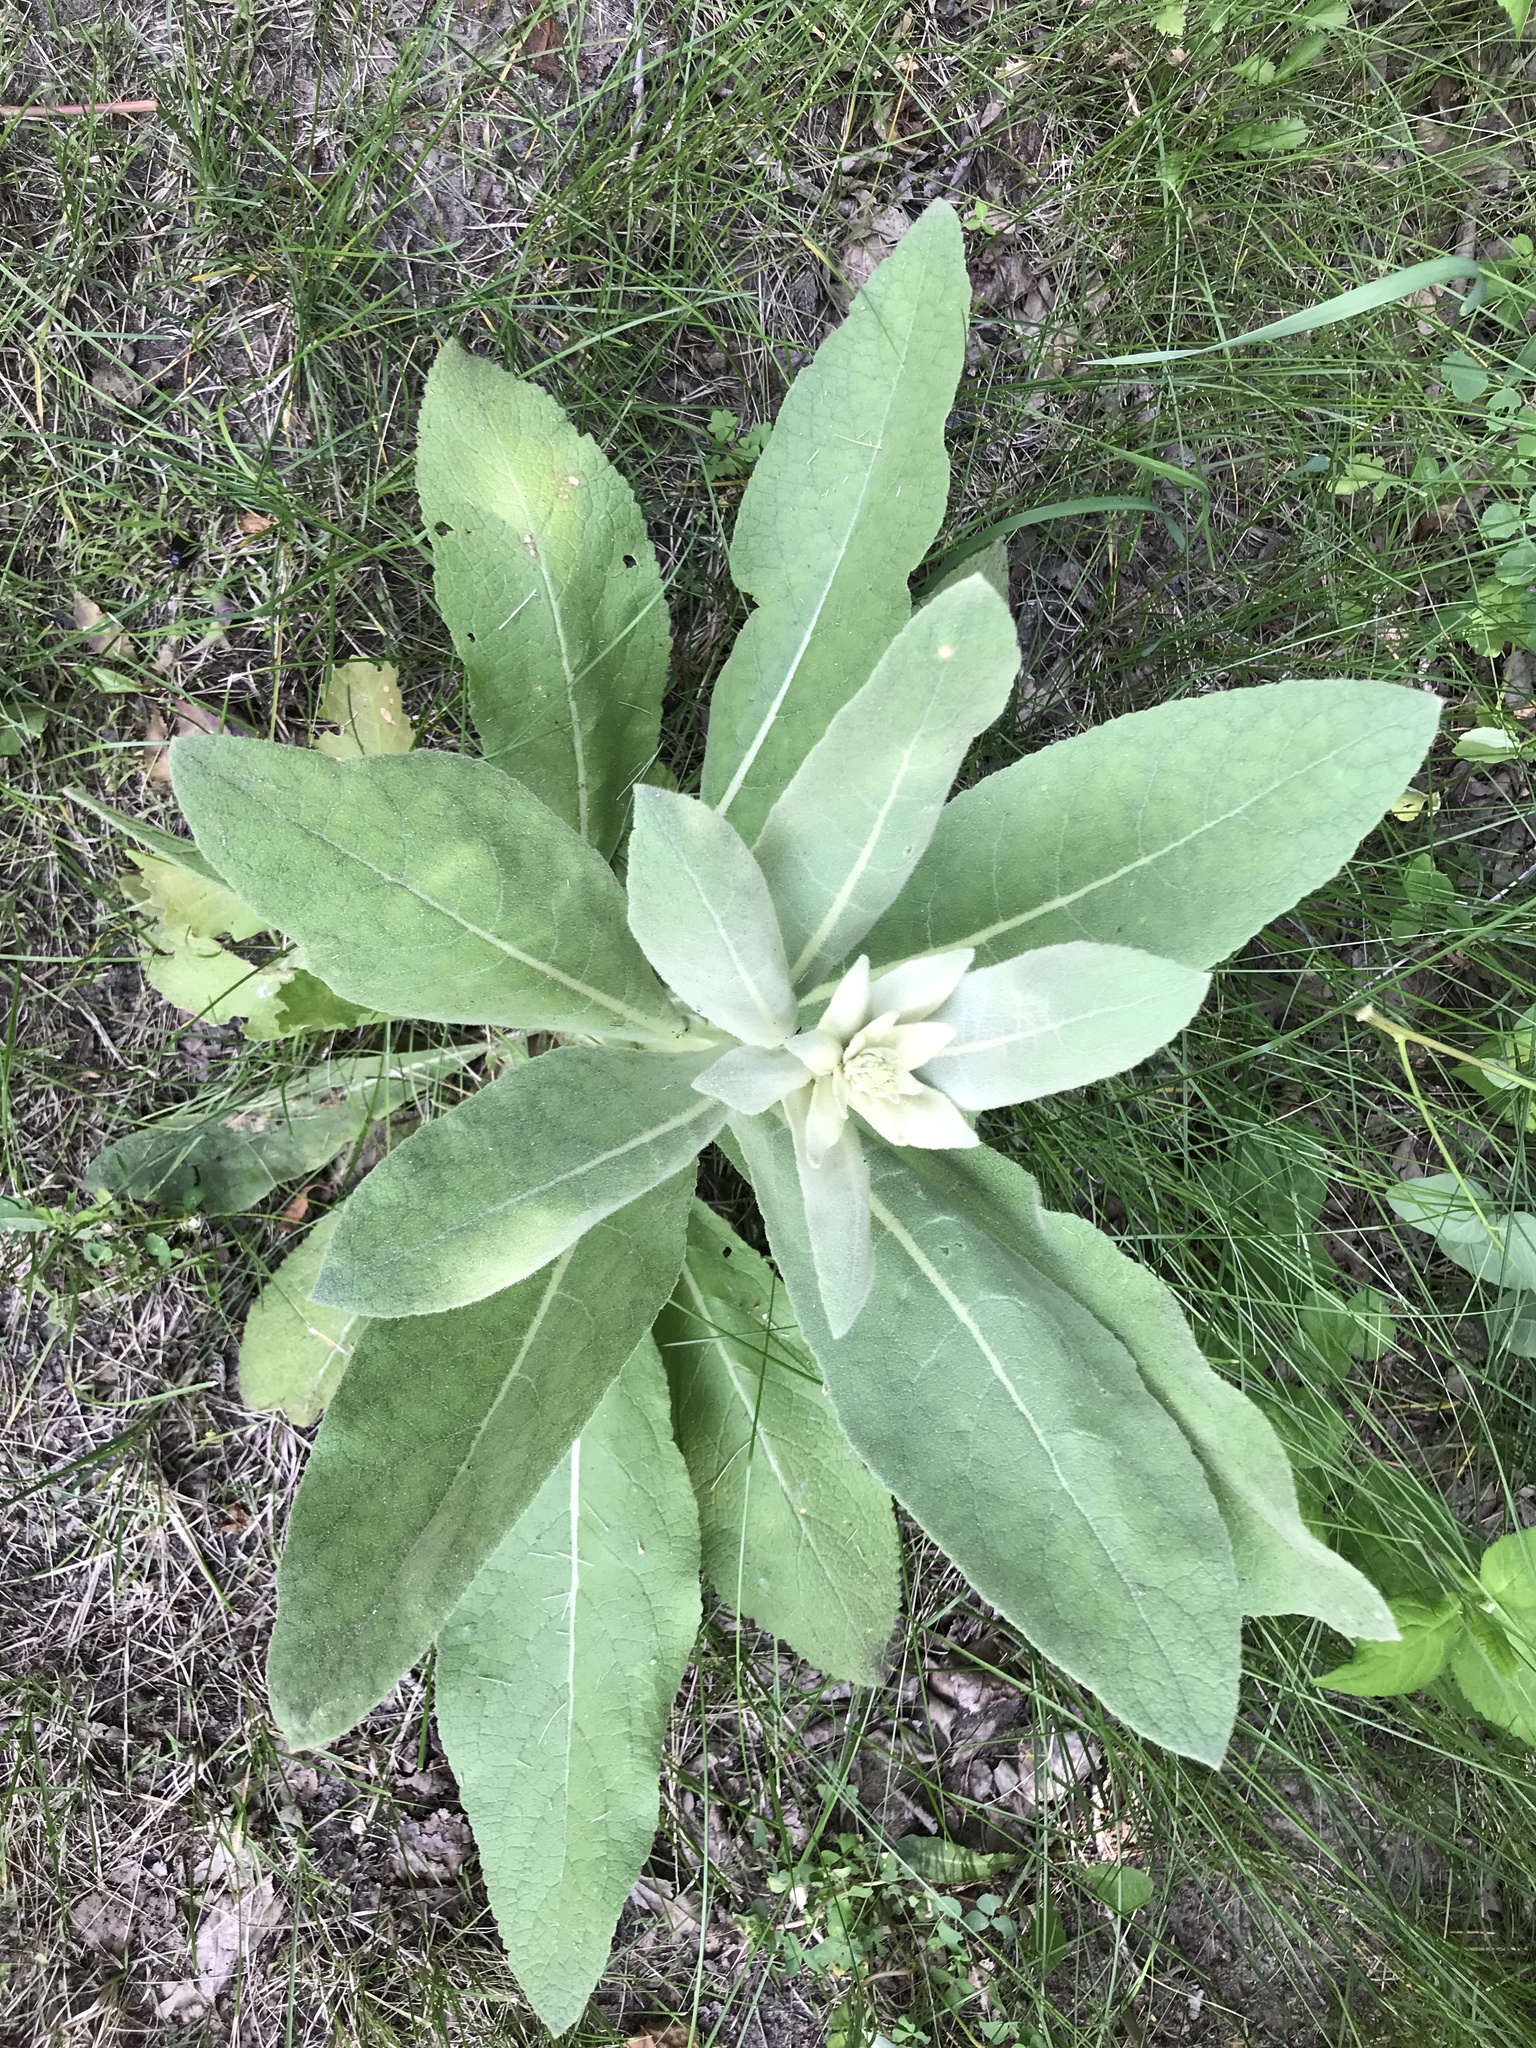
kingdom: Plantae
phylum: Tracheophyta
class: Magnoliopsida
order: Lamiales
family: Scrophulariaceae
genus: Verbascum
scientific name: Verbascum thapsus
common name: Common mullein
